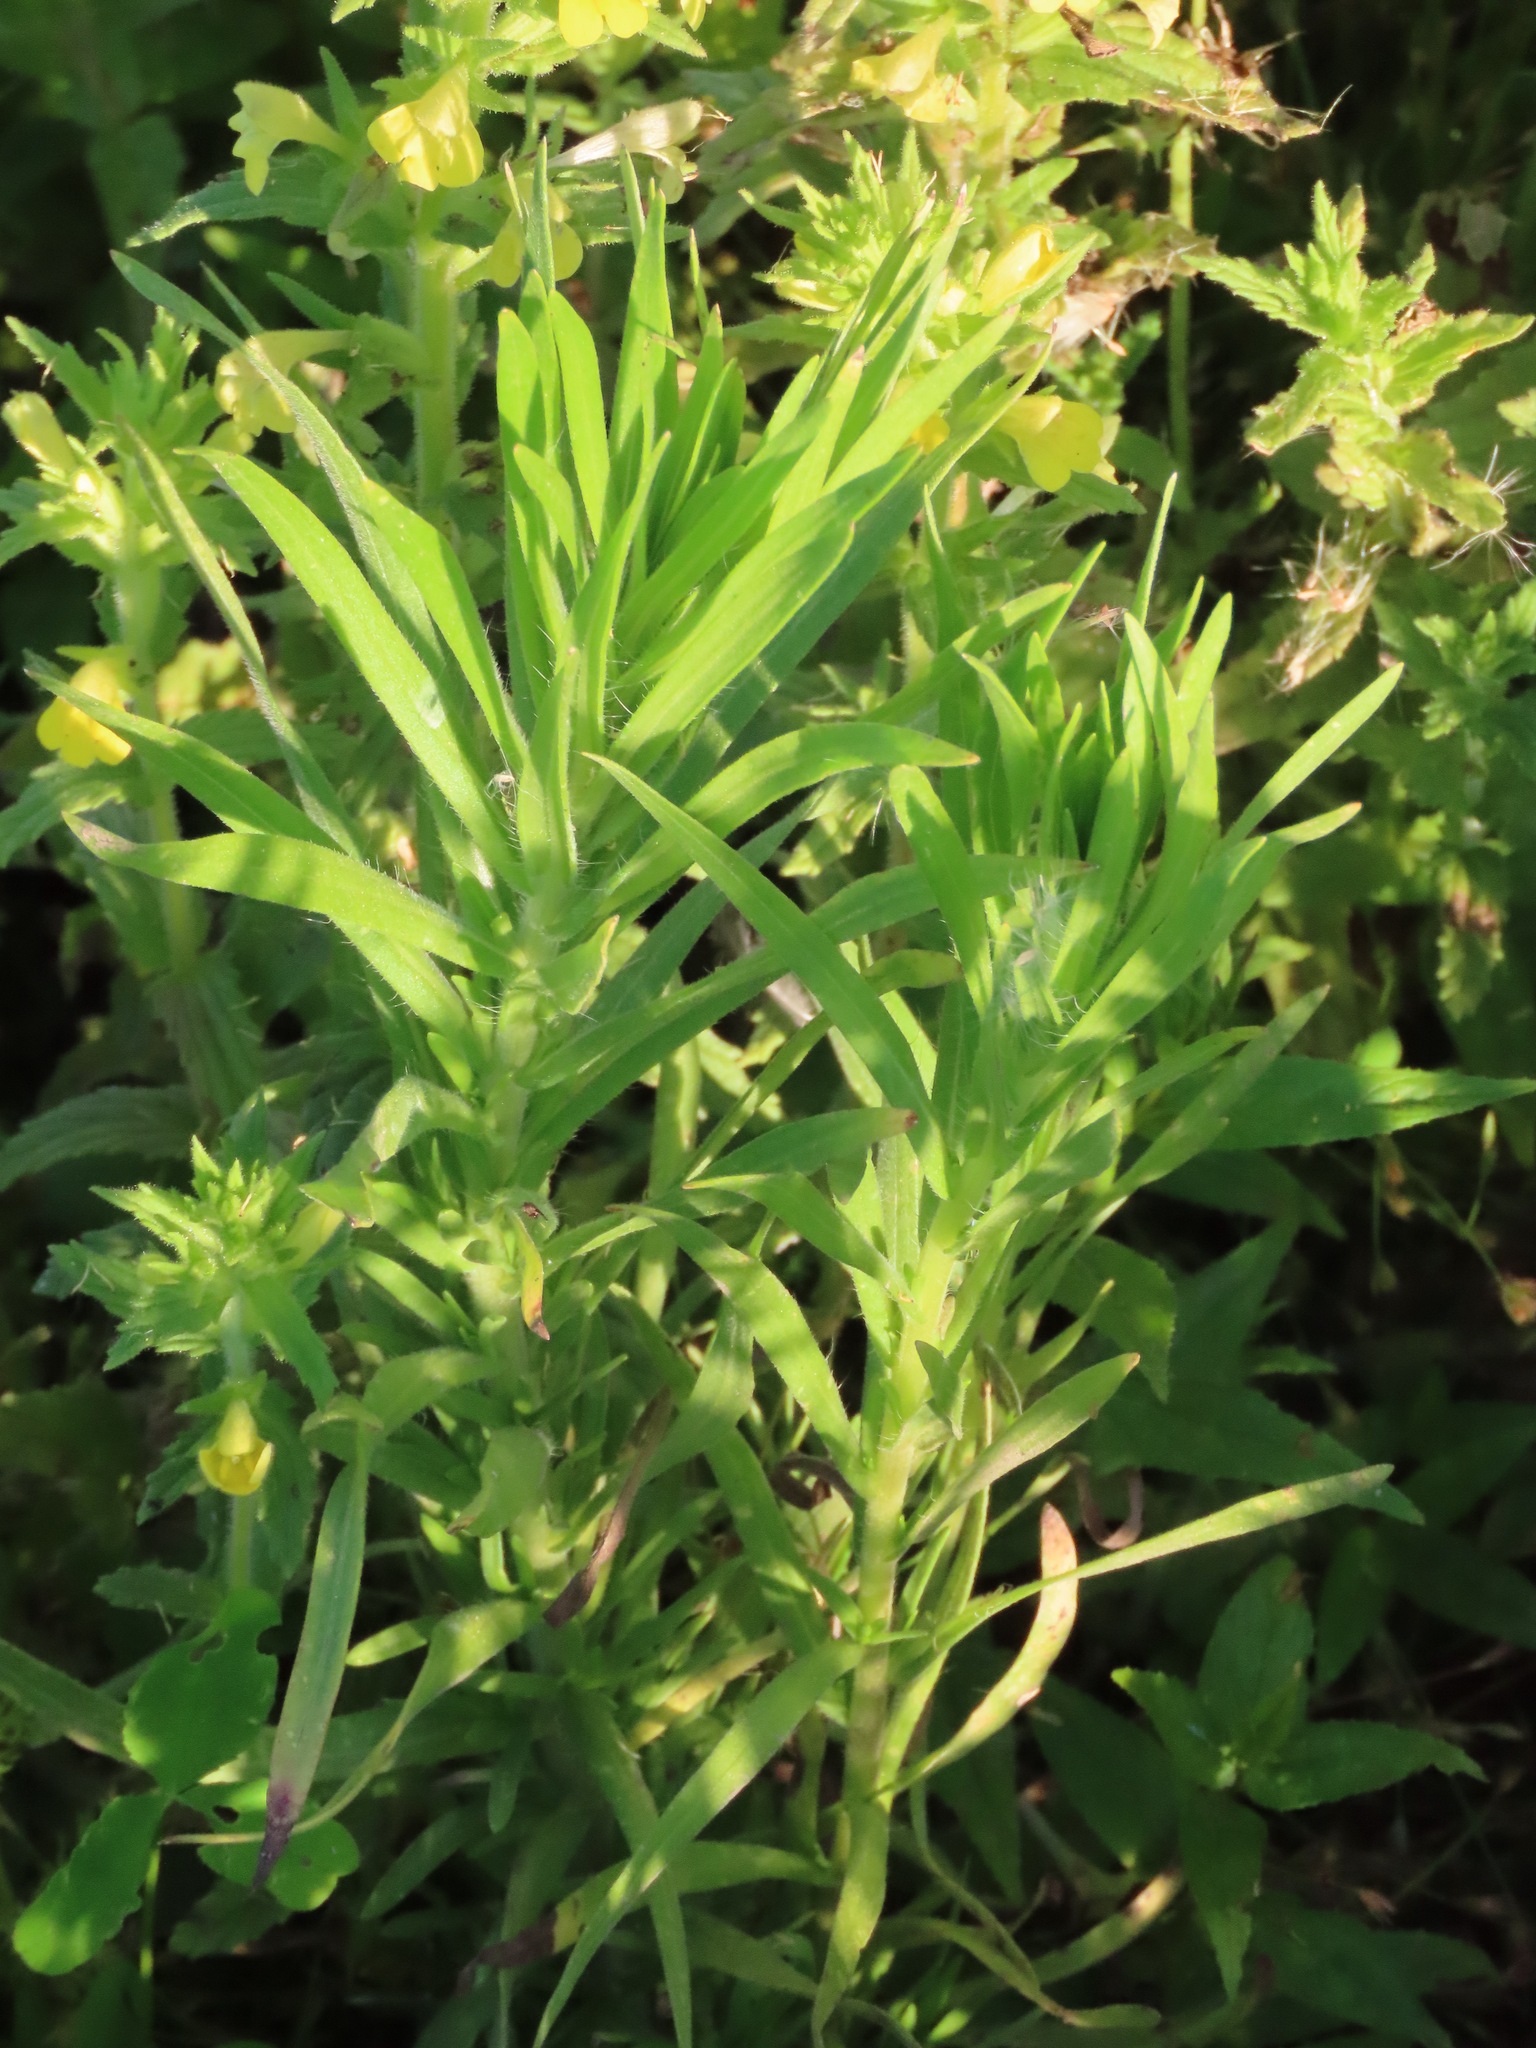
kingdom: Plantae
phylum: Tracheophyta
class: Magnoliopsida
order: Asterales
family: Asteraceae
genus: Erigeron
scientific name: Erigeron canadensis
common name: Canadian fleabane
